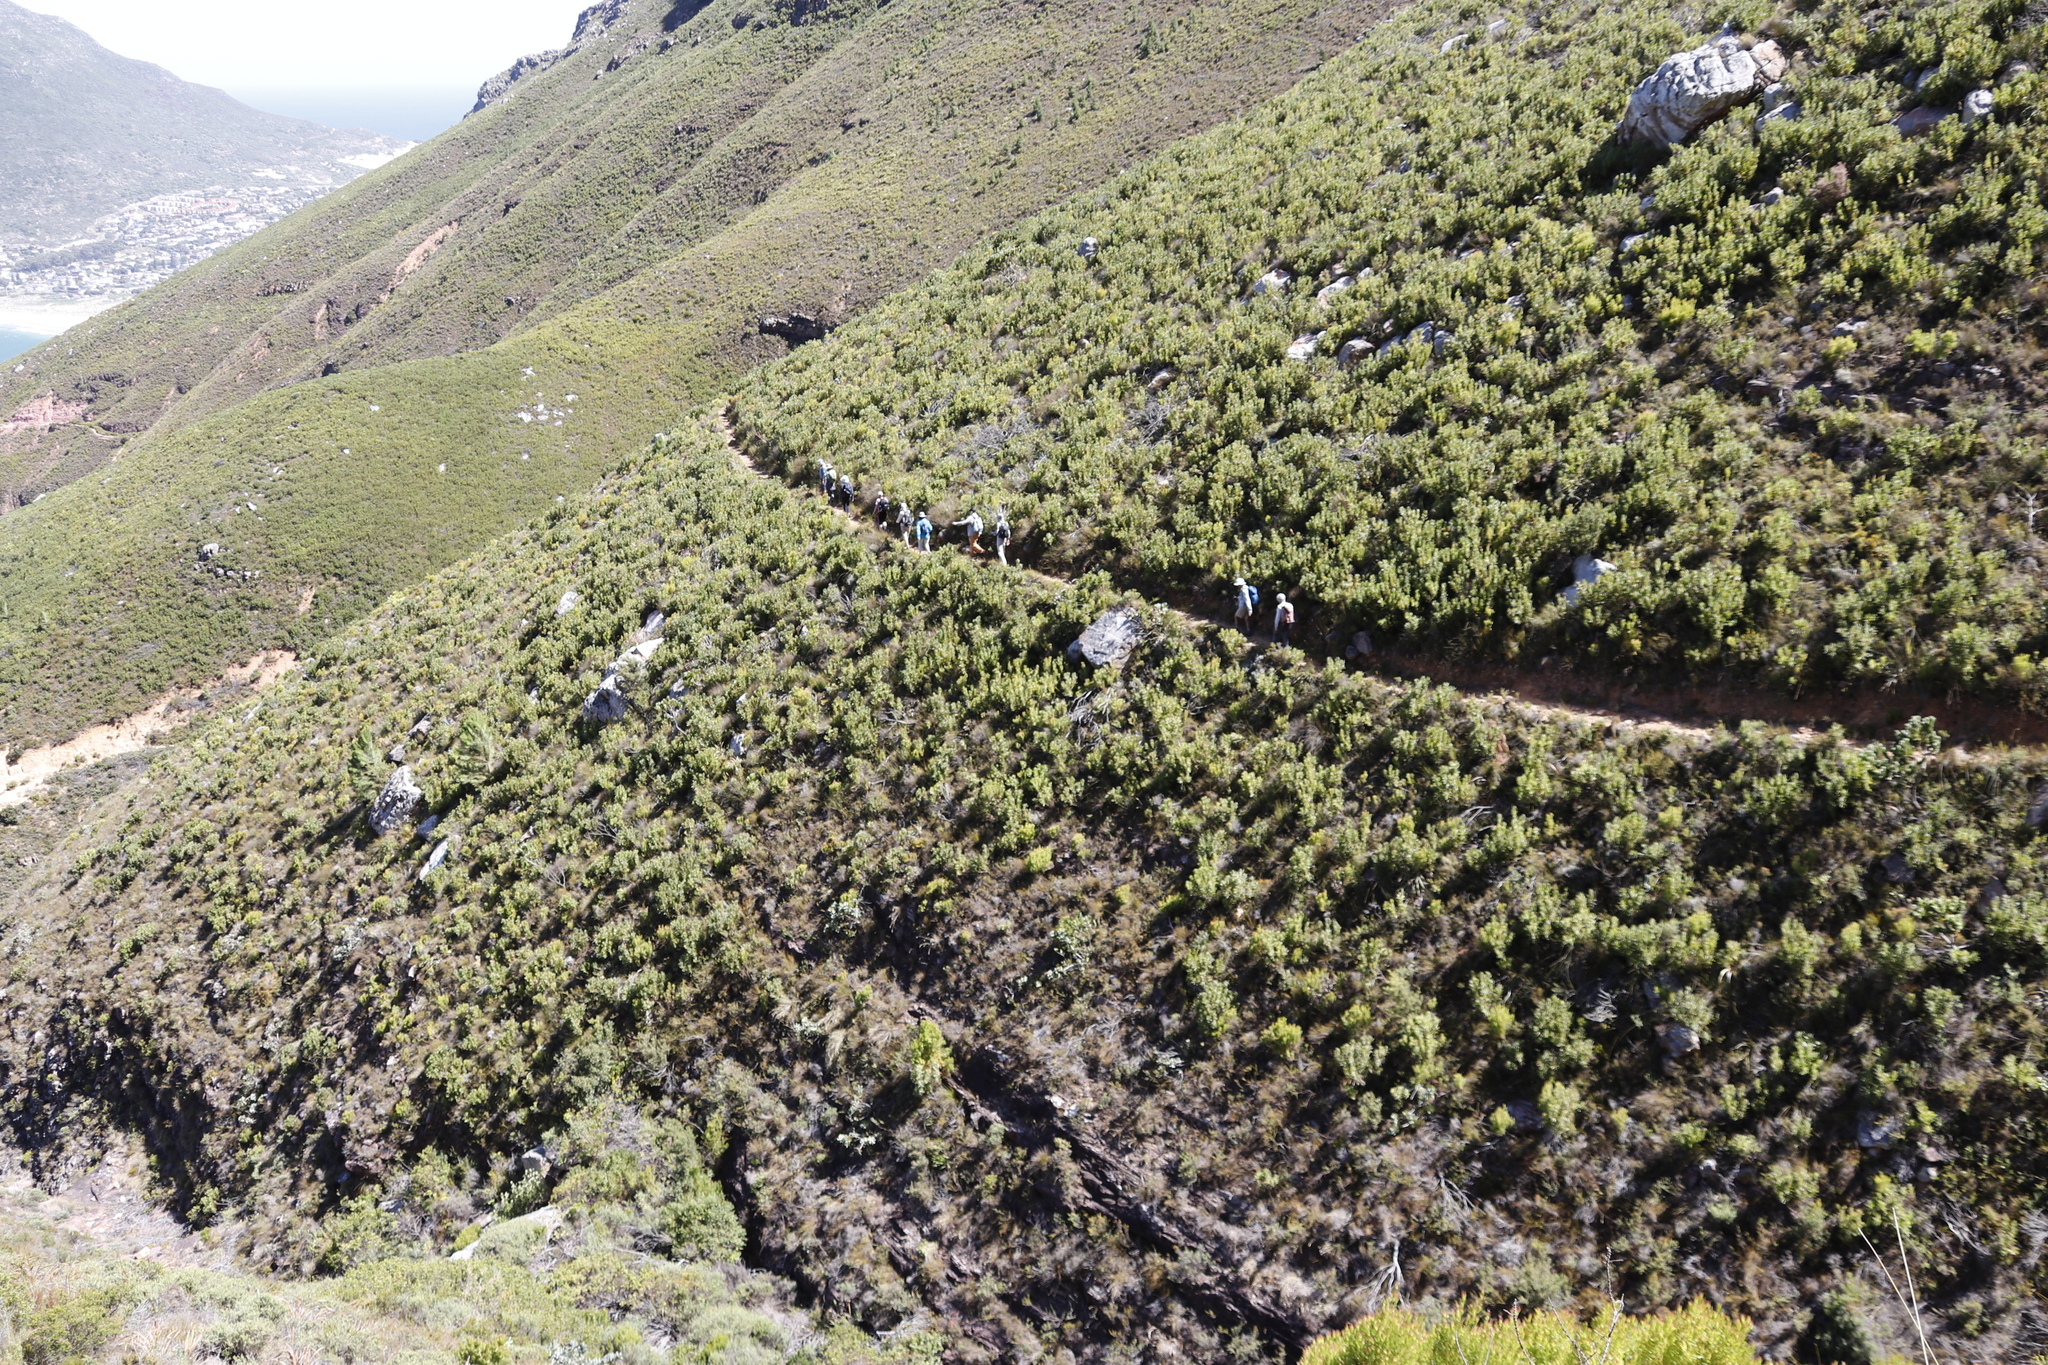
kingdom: Plantae
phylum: Tracheophyta
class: Magnoliopsida
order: Proteales
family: Proteaceae
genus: Protea
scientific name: Protea lepidocarpodendron
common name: Black-bearded protea
